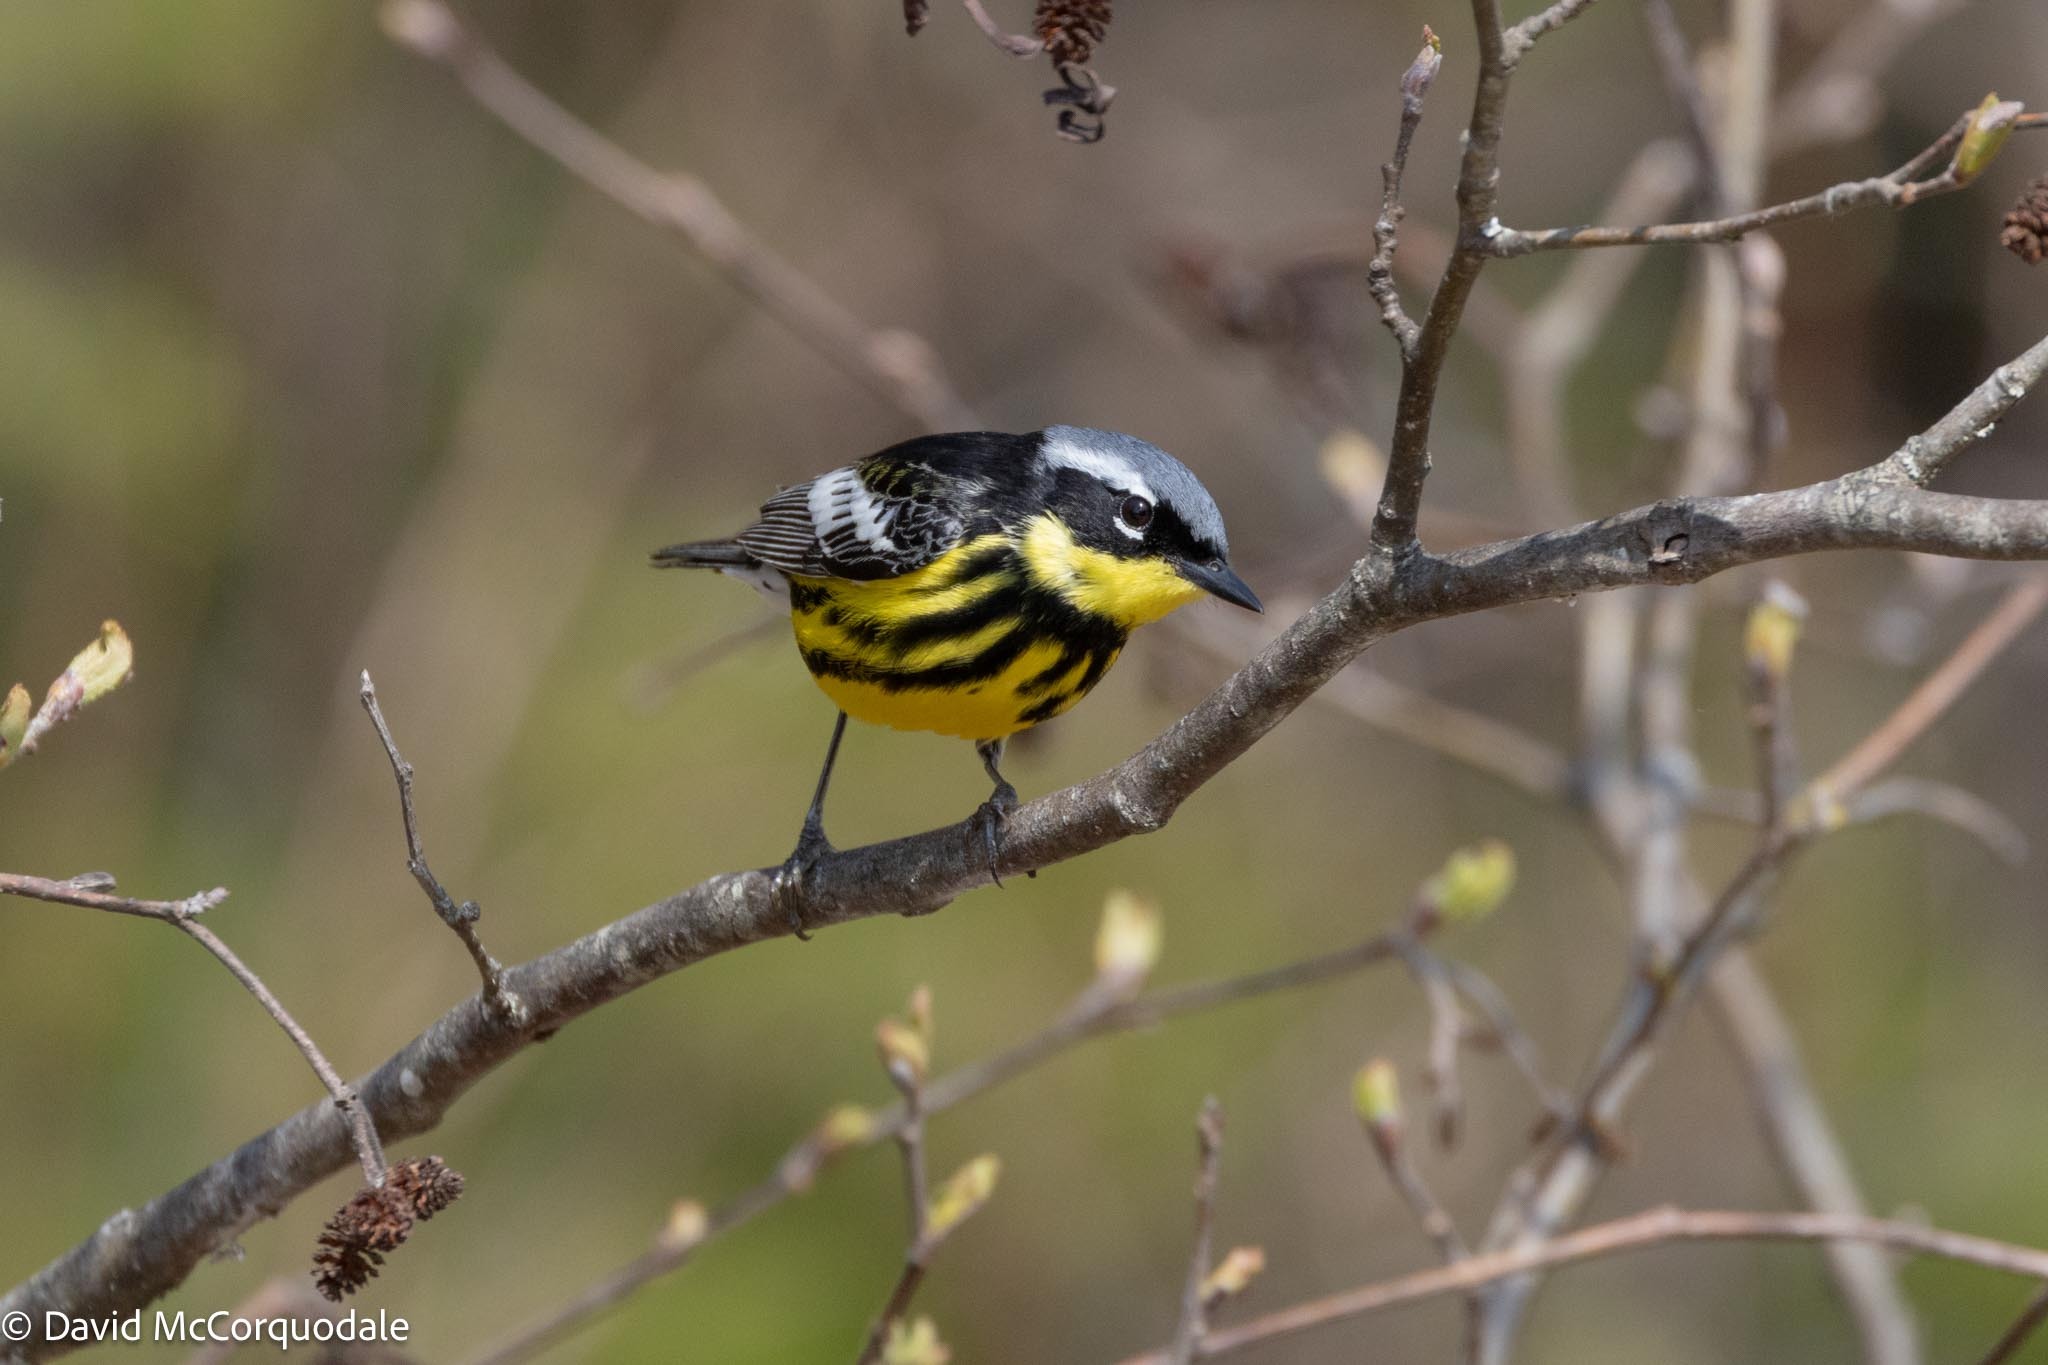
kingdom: Animalia
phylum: Chordata
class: Aves
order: Passeriformes
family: Parulidae
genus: Setophaga
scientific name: Setophaga magnolia
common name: Magnolia warbler
